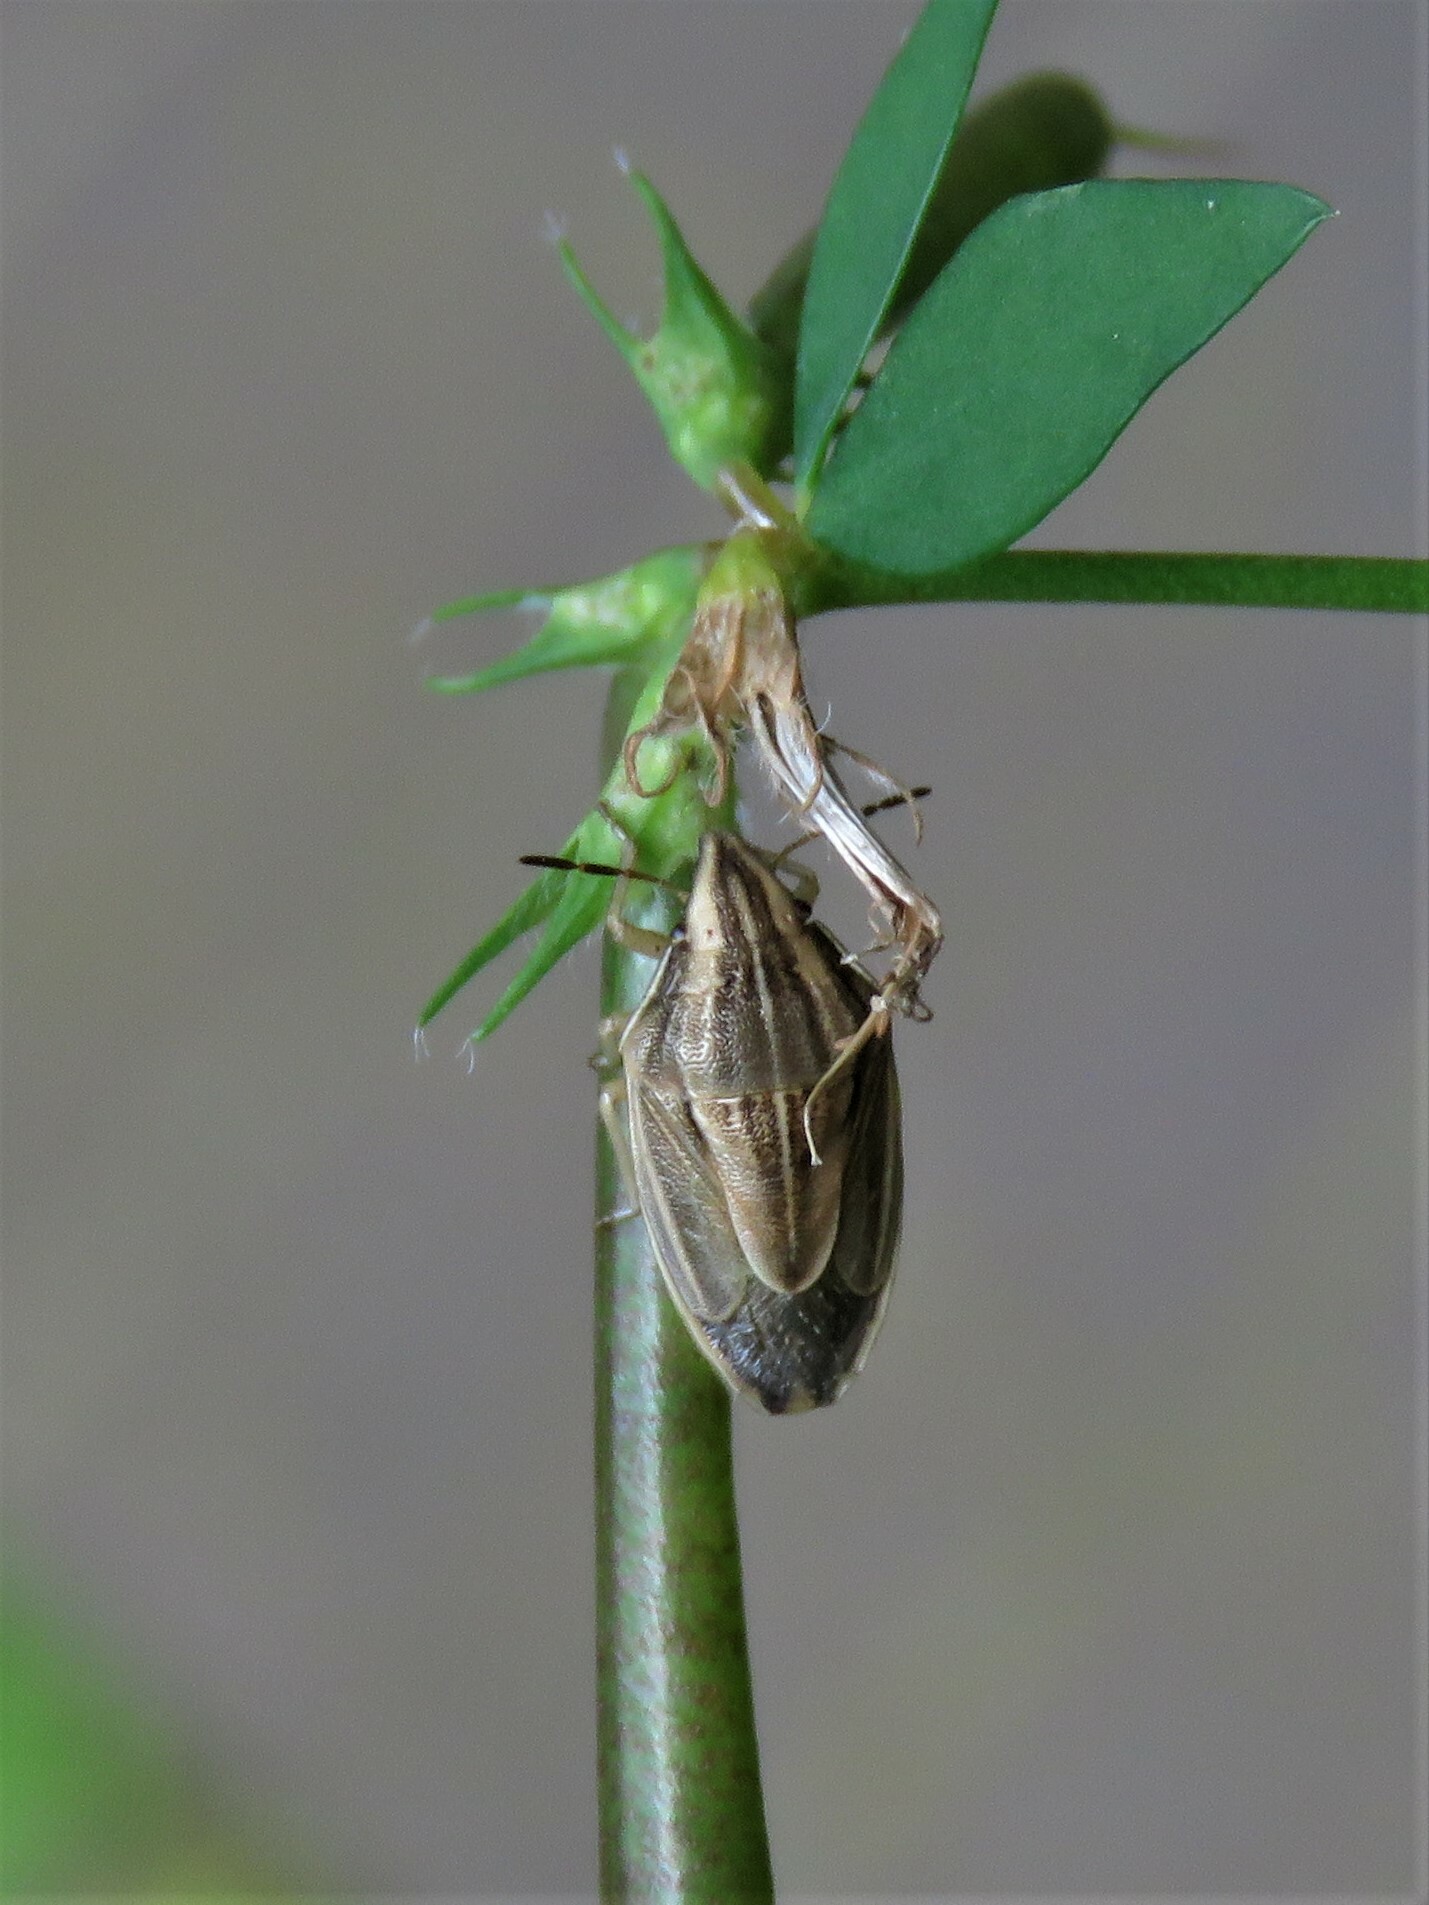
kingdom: Animalia
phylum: Arthropoda
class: Insecta
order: Hemiptera
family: Pentatomidae
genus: Aelia
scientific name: Aelia acuminata
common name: Bishop's mitre
